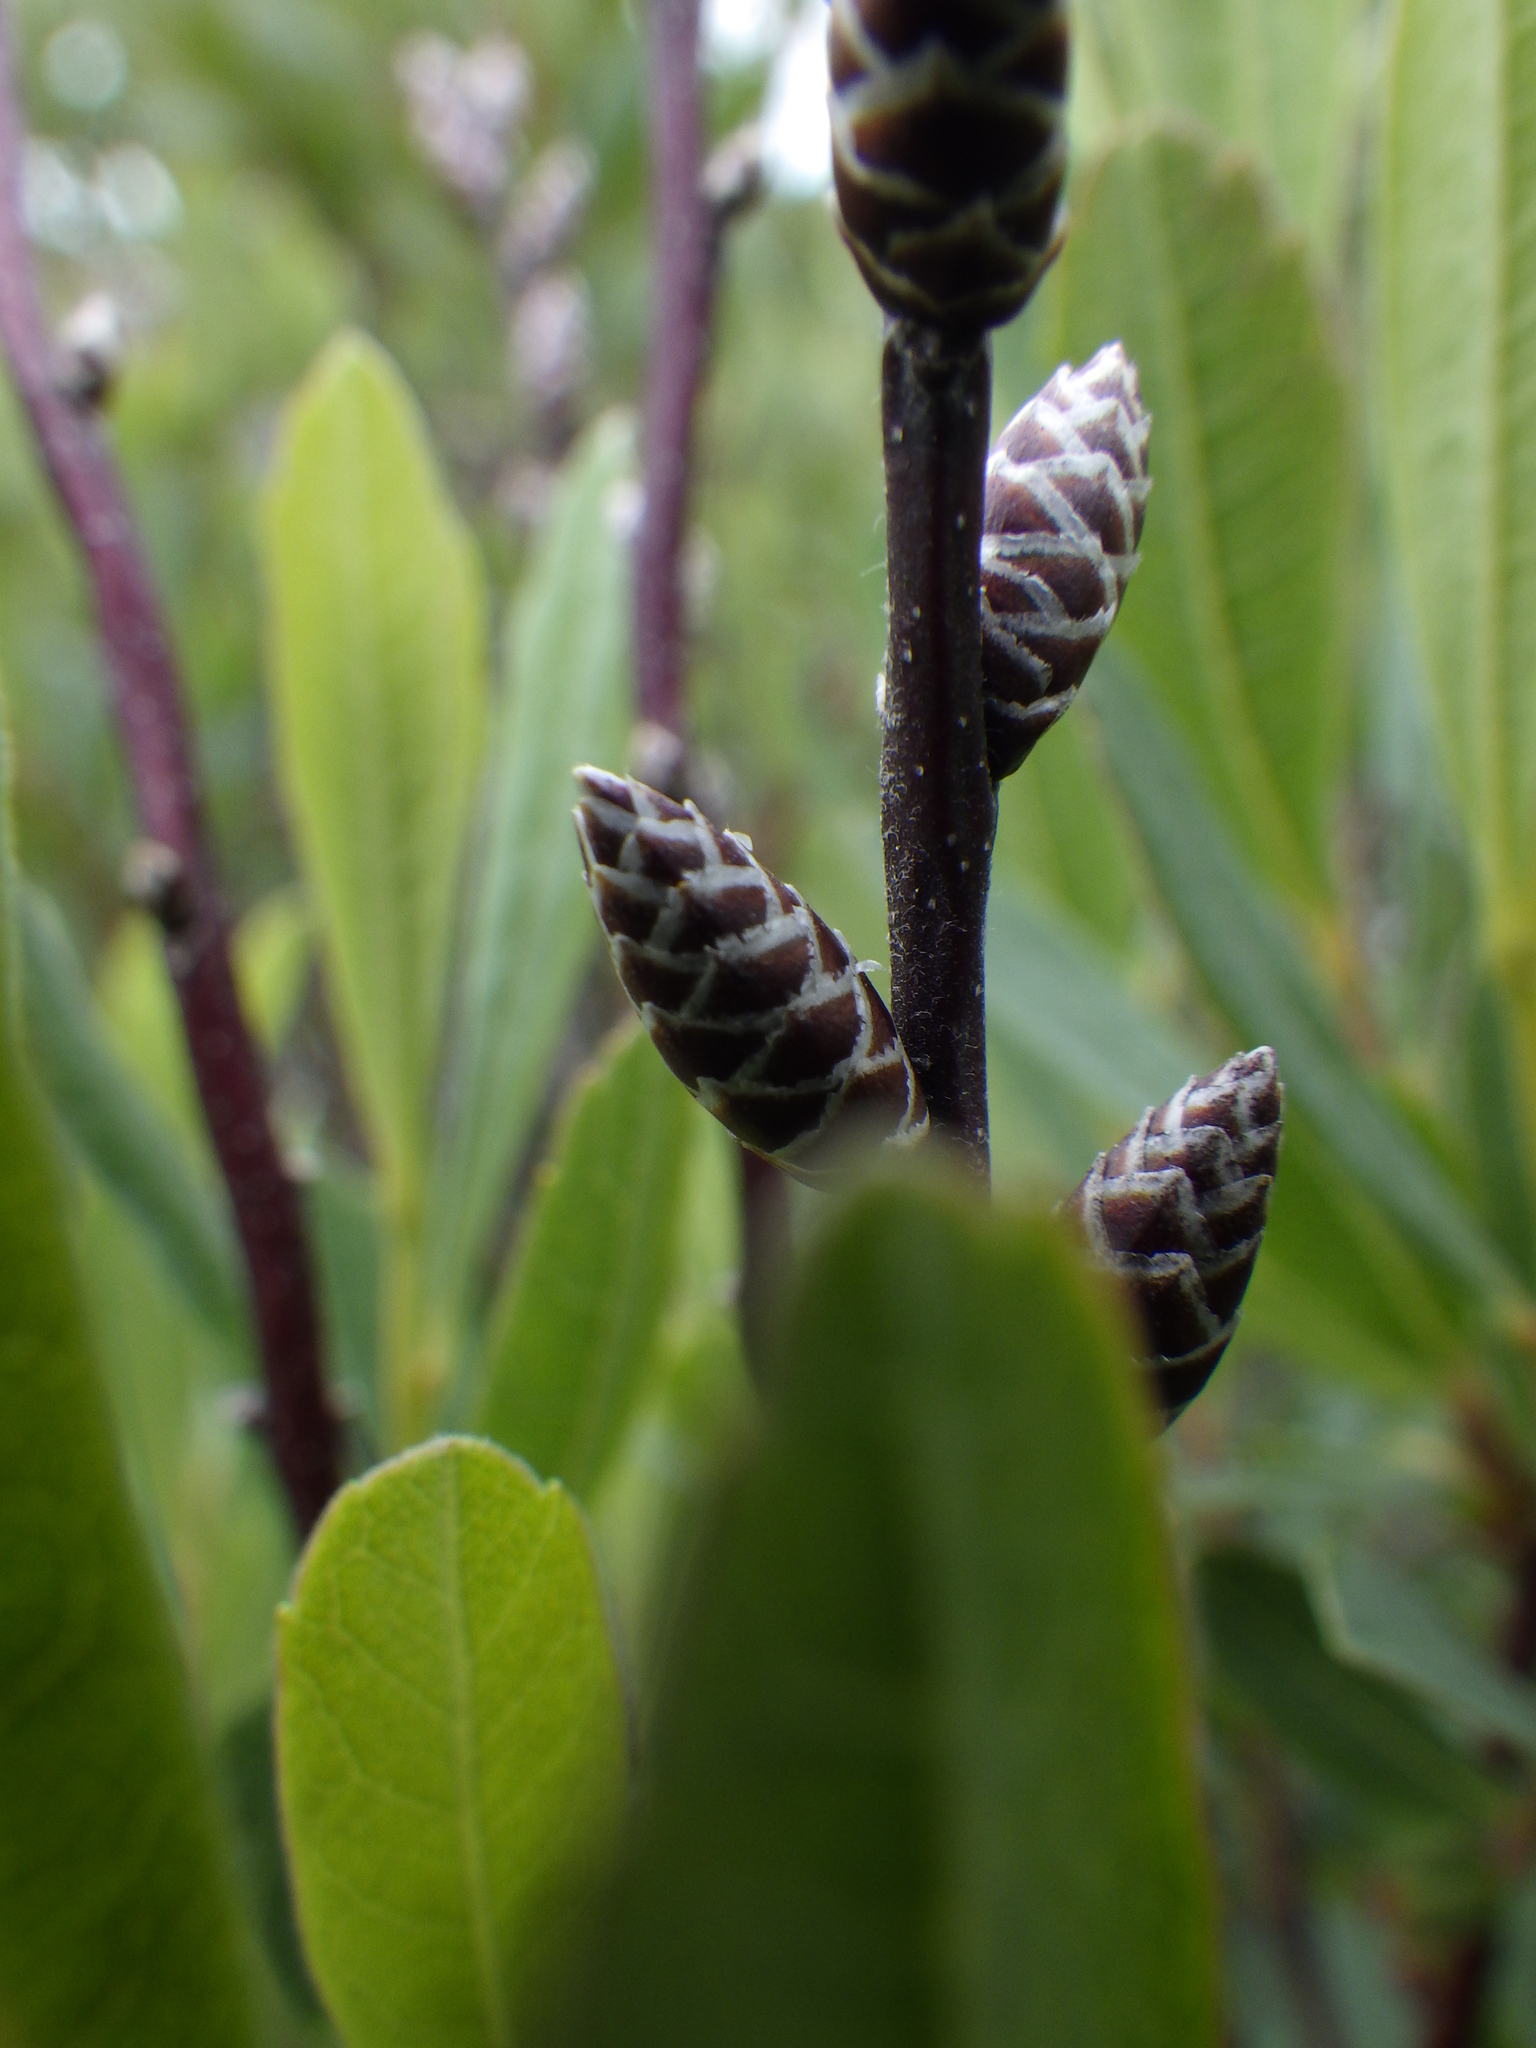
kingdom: Plantae
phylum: Tracheophyta
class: Magnoliopsida
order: Fagales
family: Myricaceae
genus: Myrica
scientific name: Myrica gale
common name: Sweet gale
